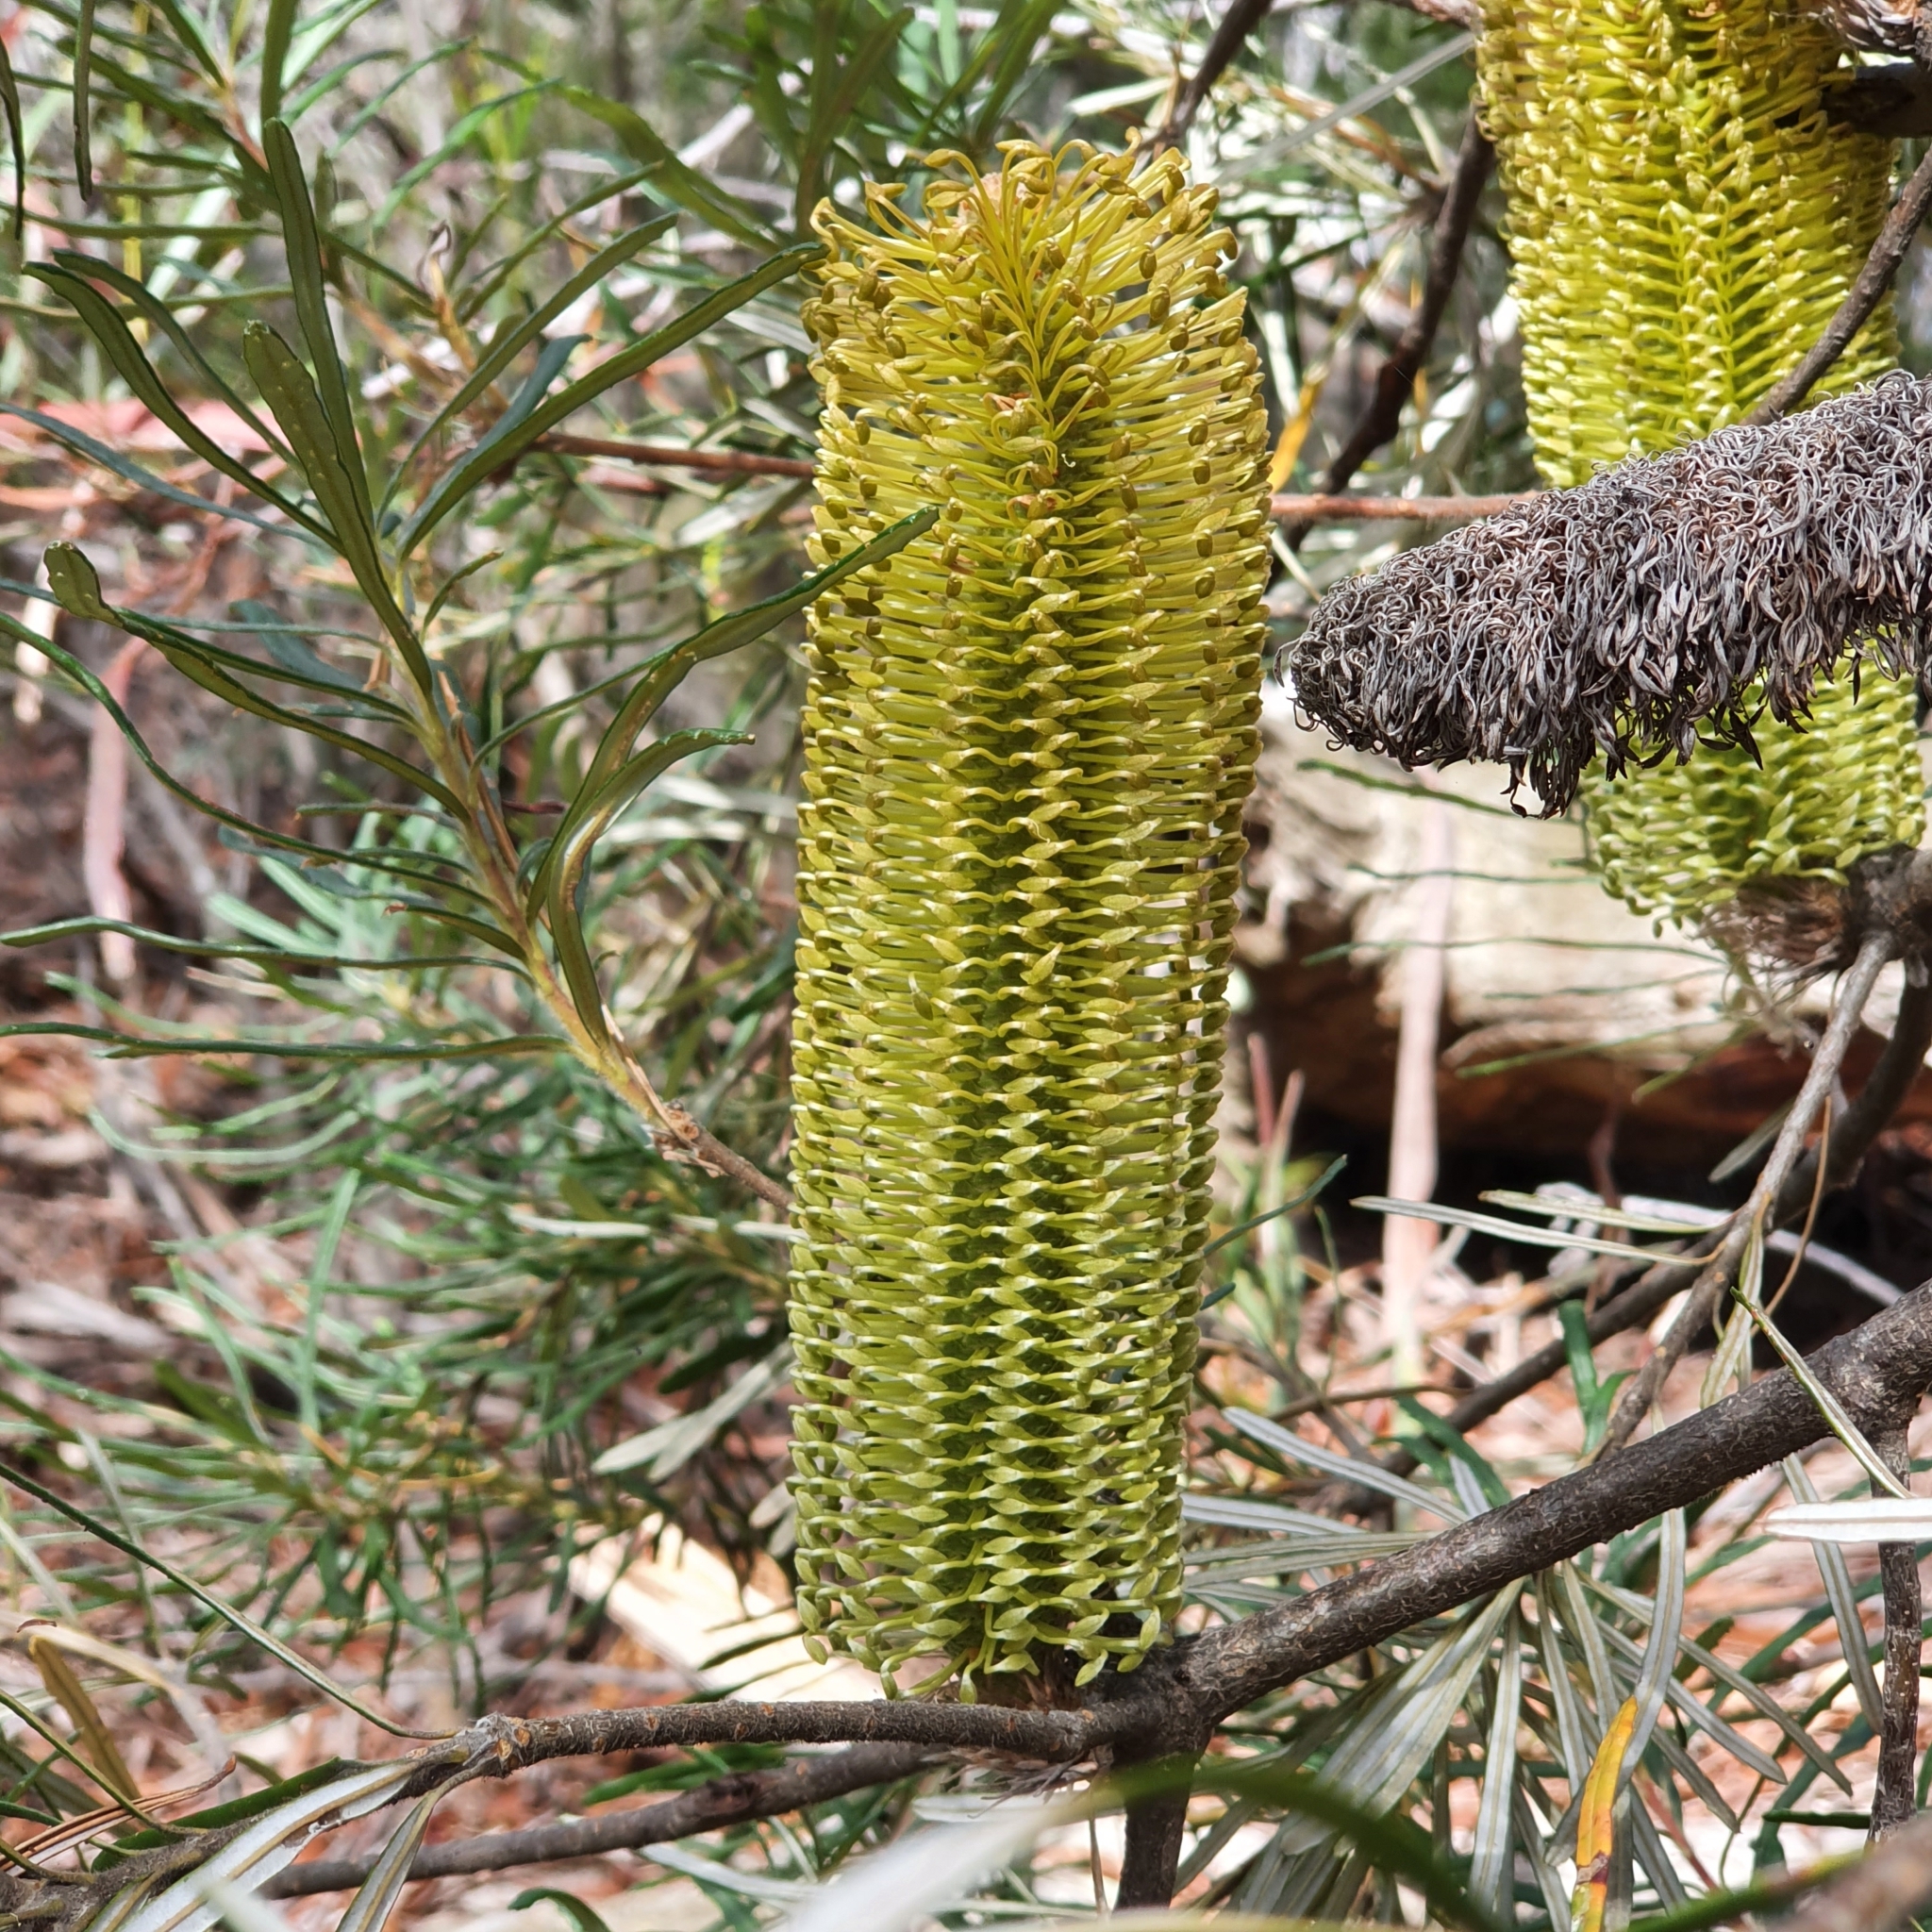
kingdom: Plantae
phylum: Tracheophyta
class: Magnoliopsida
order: Proteales
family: Proteaceae
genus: Banksia
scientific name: Banksia spinulosa
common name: Hairpin banksia
